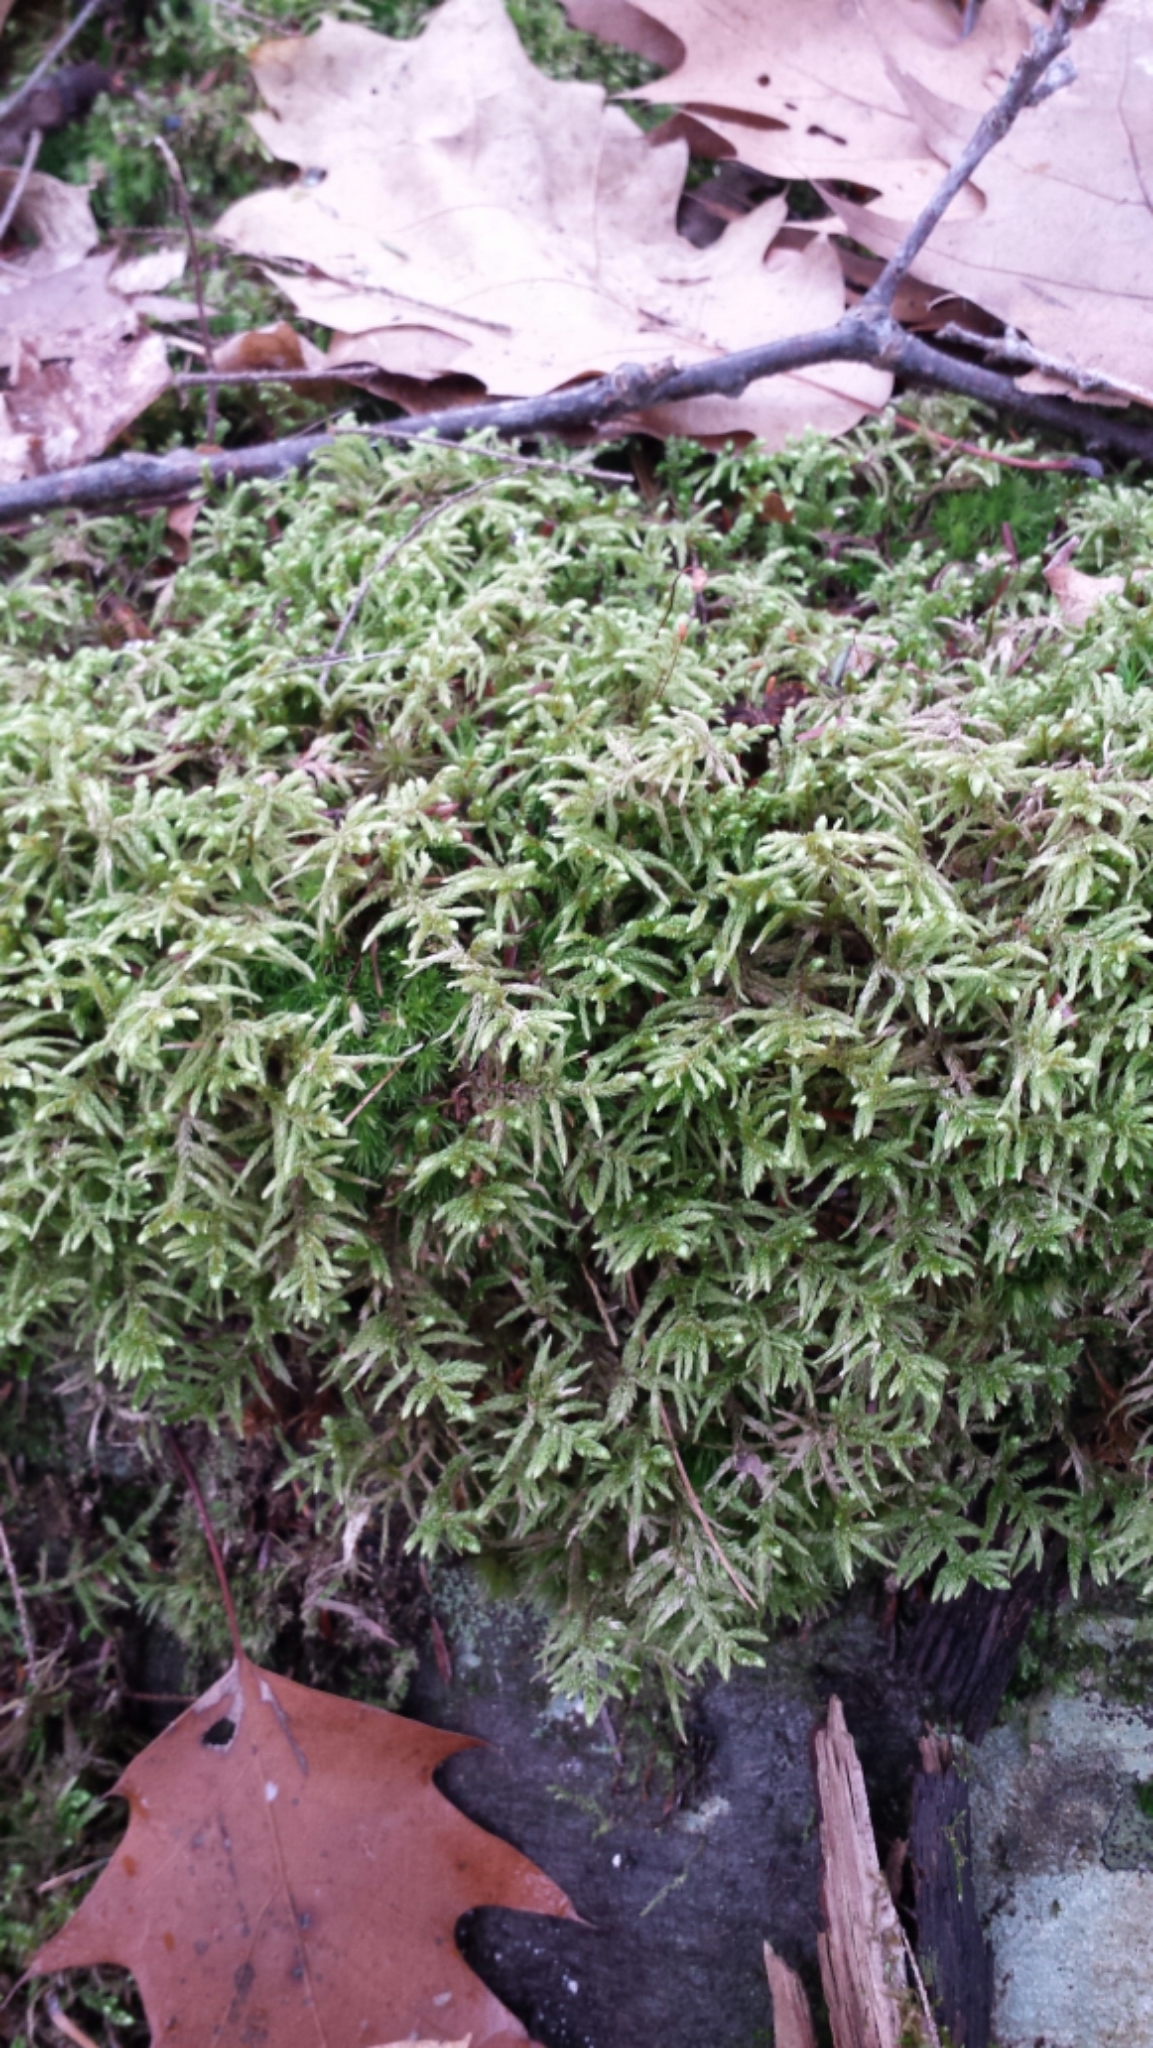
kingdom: Plantae
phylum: Bryophyta
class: Bryopsida
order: Hypnales
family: Hylocomiaceae
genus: Pleurozium
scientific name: Pleurozium schreberi
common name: Red-stemmed feather moss
